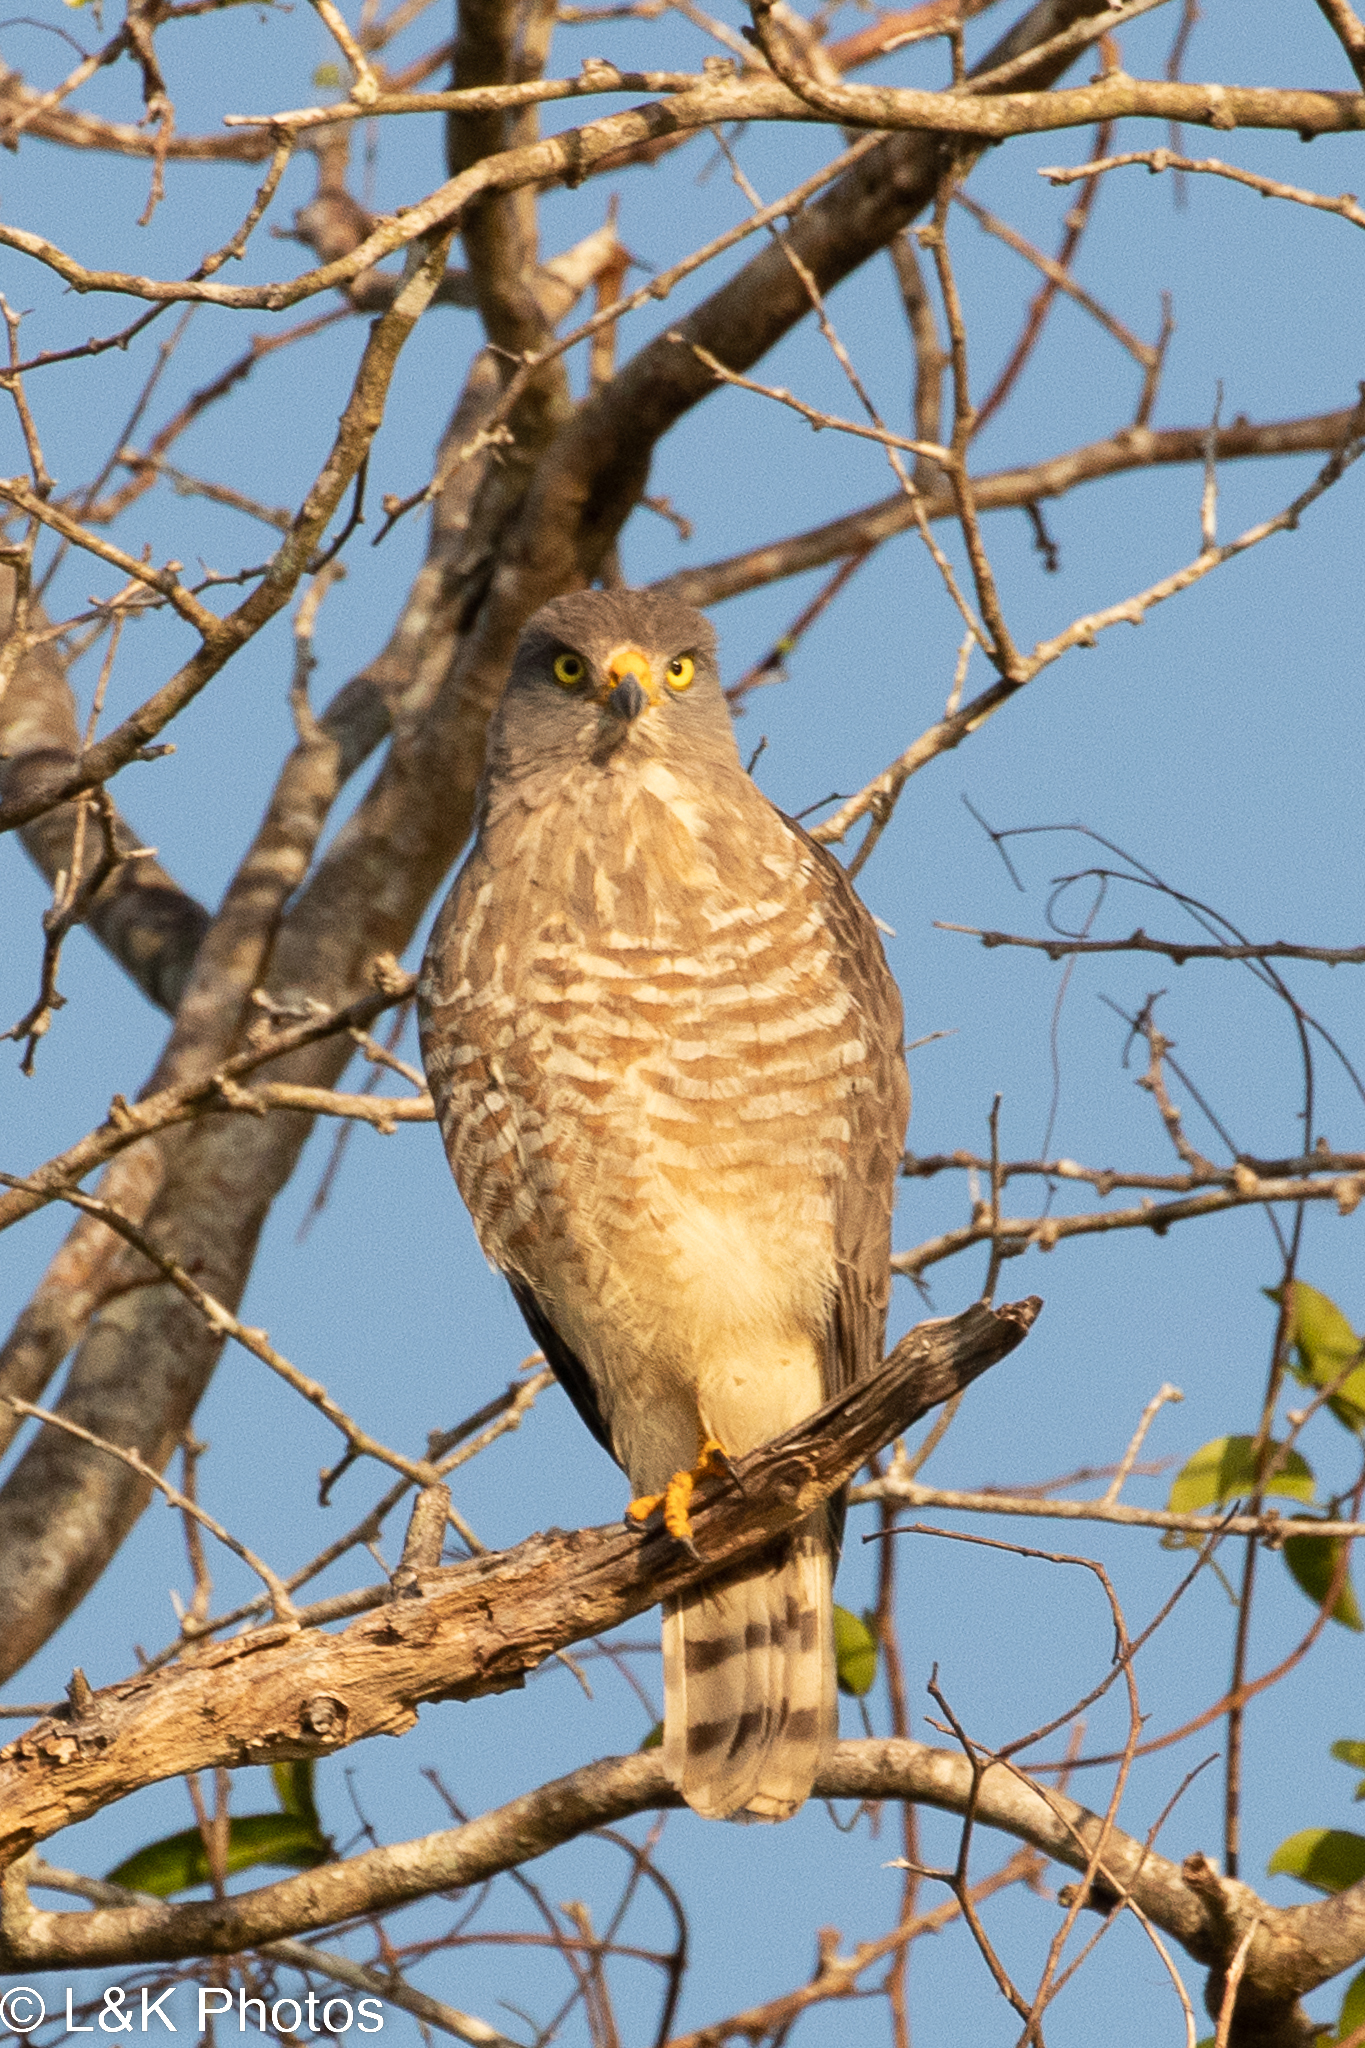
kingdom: Animalia
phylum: Chordata
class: Aves
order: Accipitriformes
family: Accipitridae
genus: Rupornis
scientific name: Rupornis magnirostris
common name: Roadside hawk
